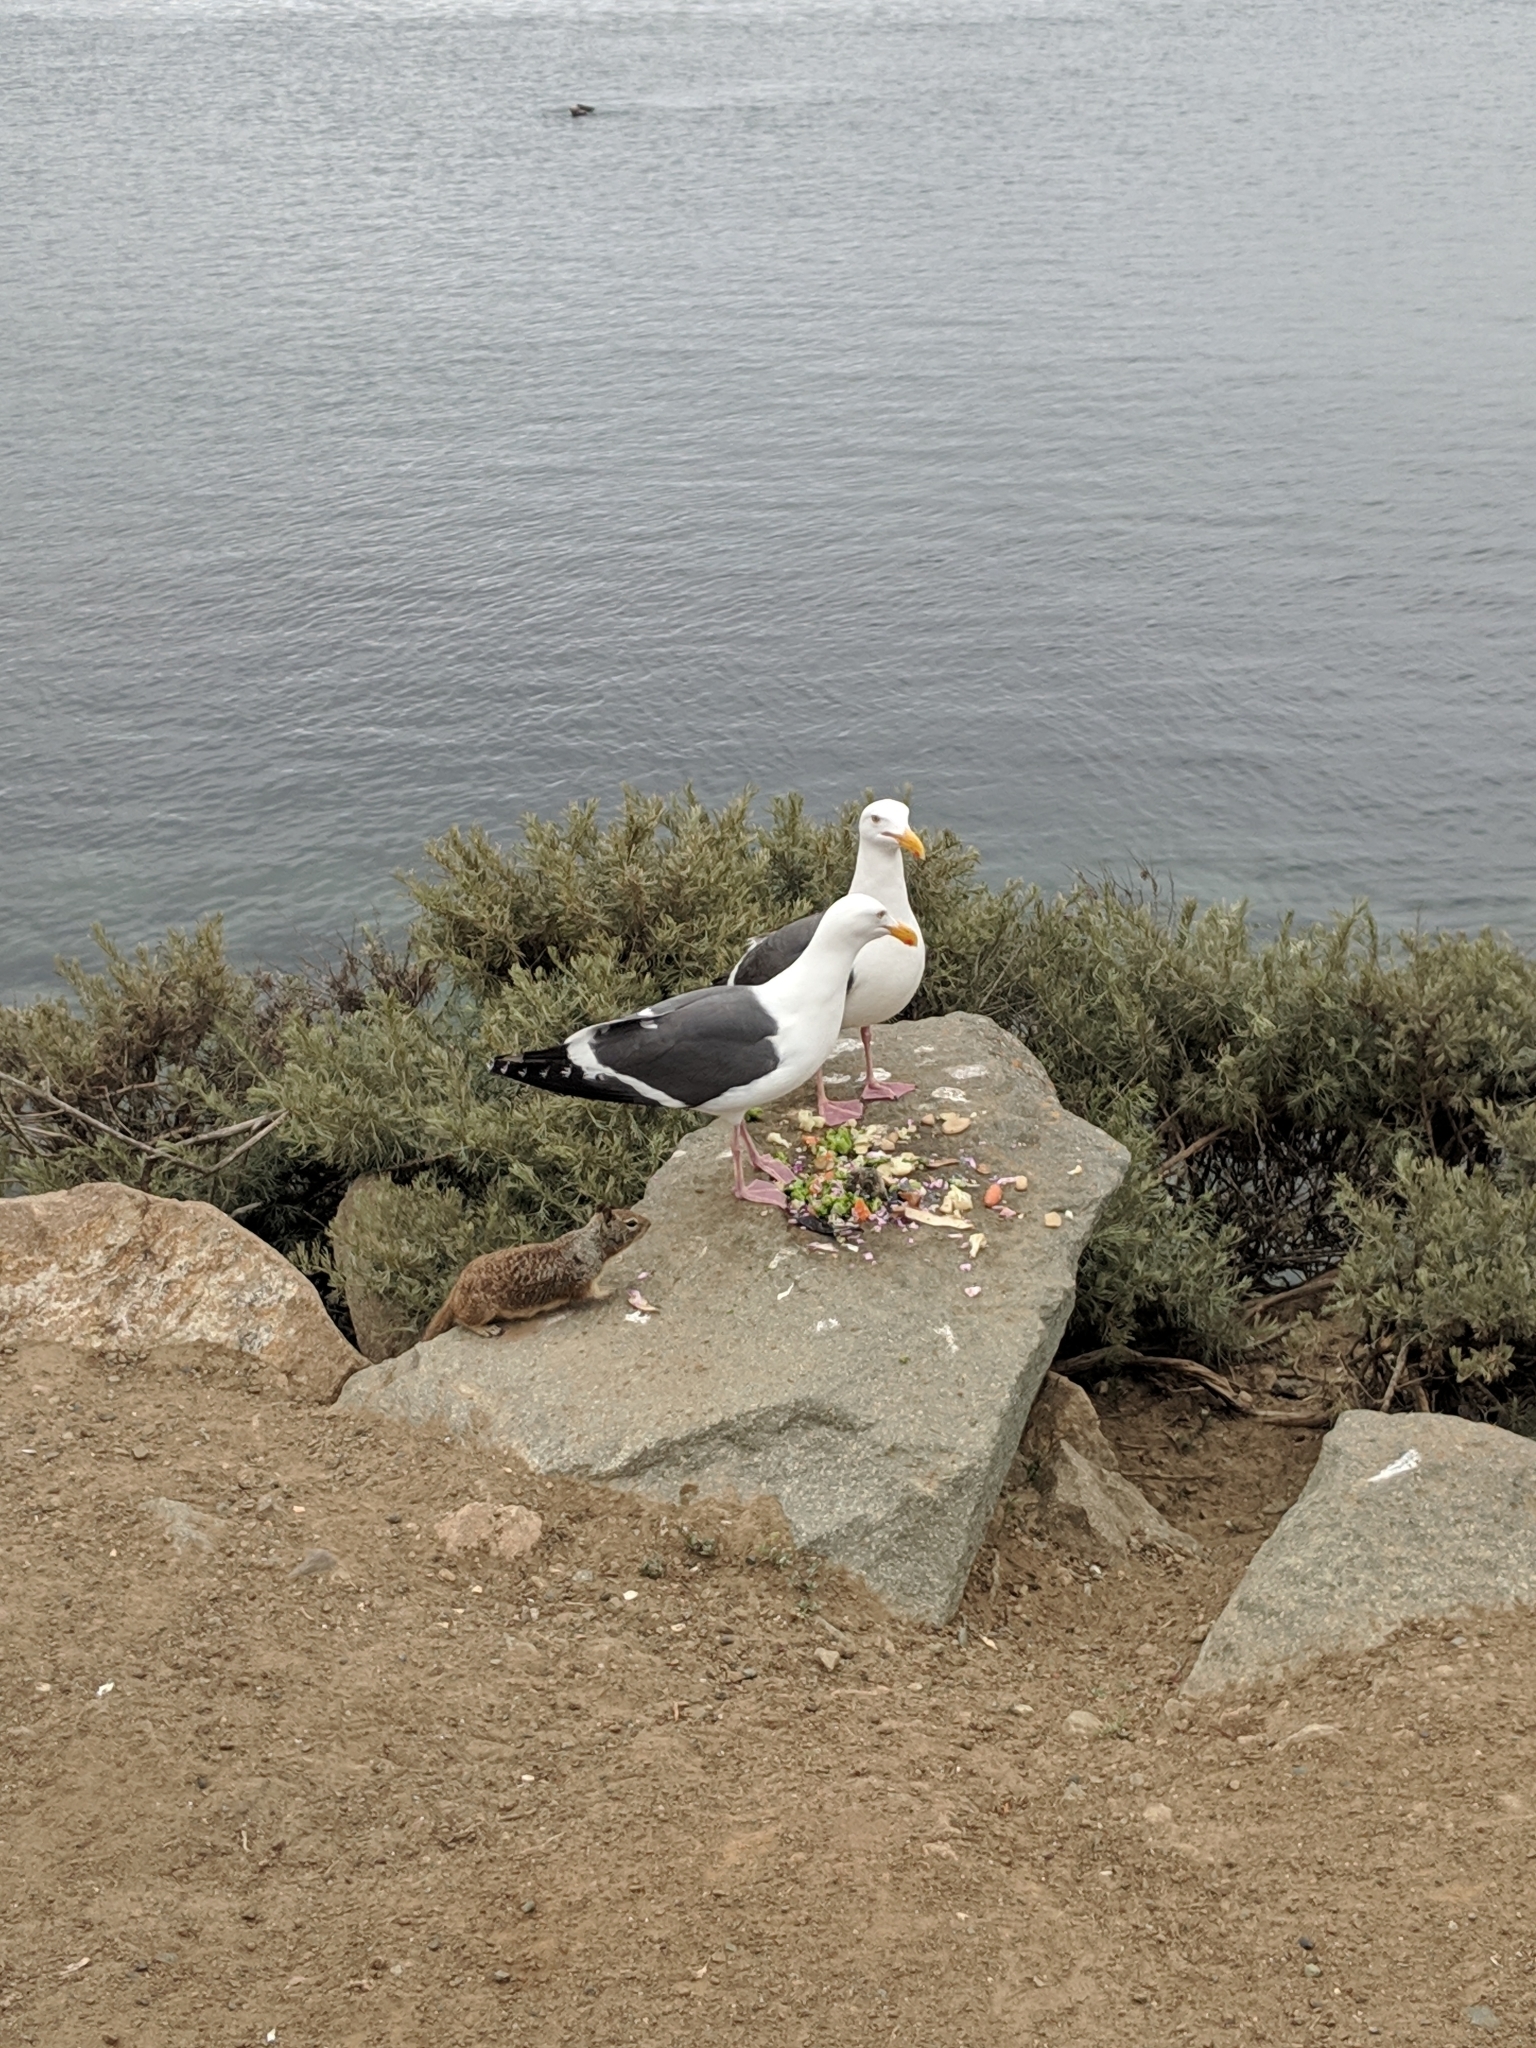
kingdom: Animalia
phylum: Chordata
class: Aves
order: Charadriiformes
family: Laridae
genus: Larus
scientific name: Larus occidentalis
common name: Western gull
